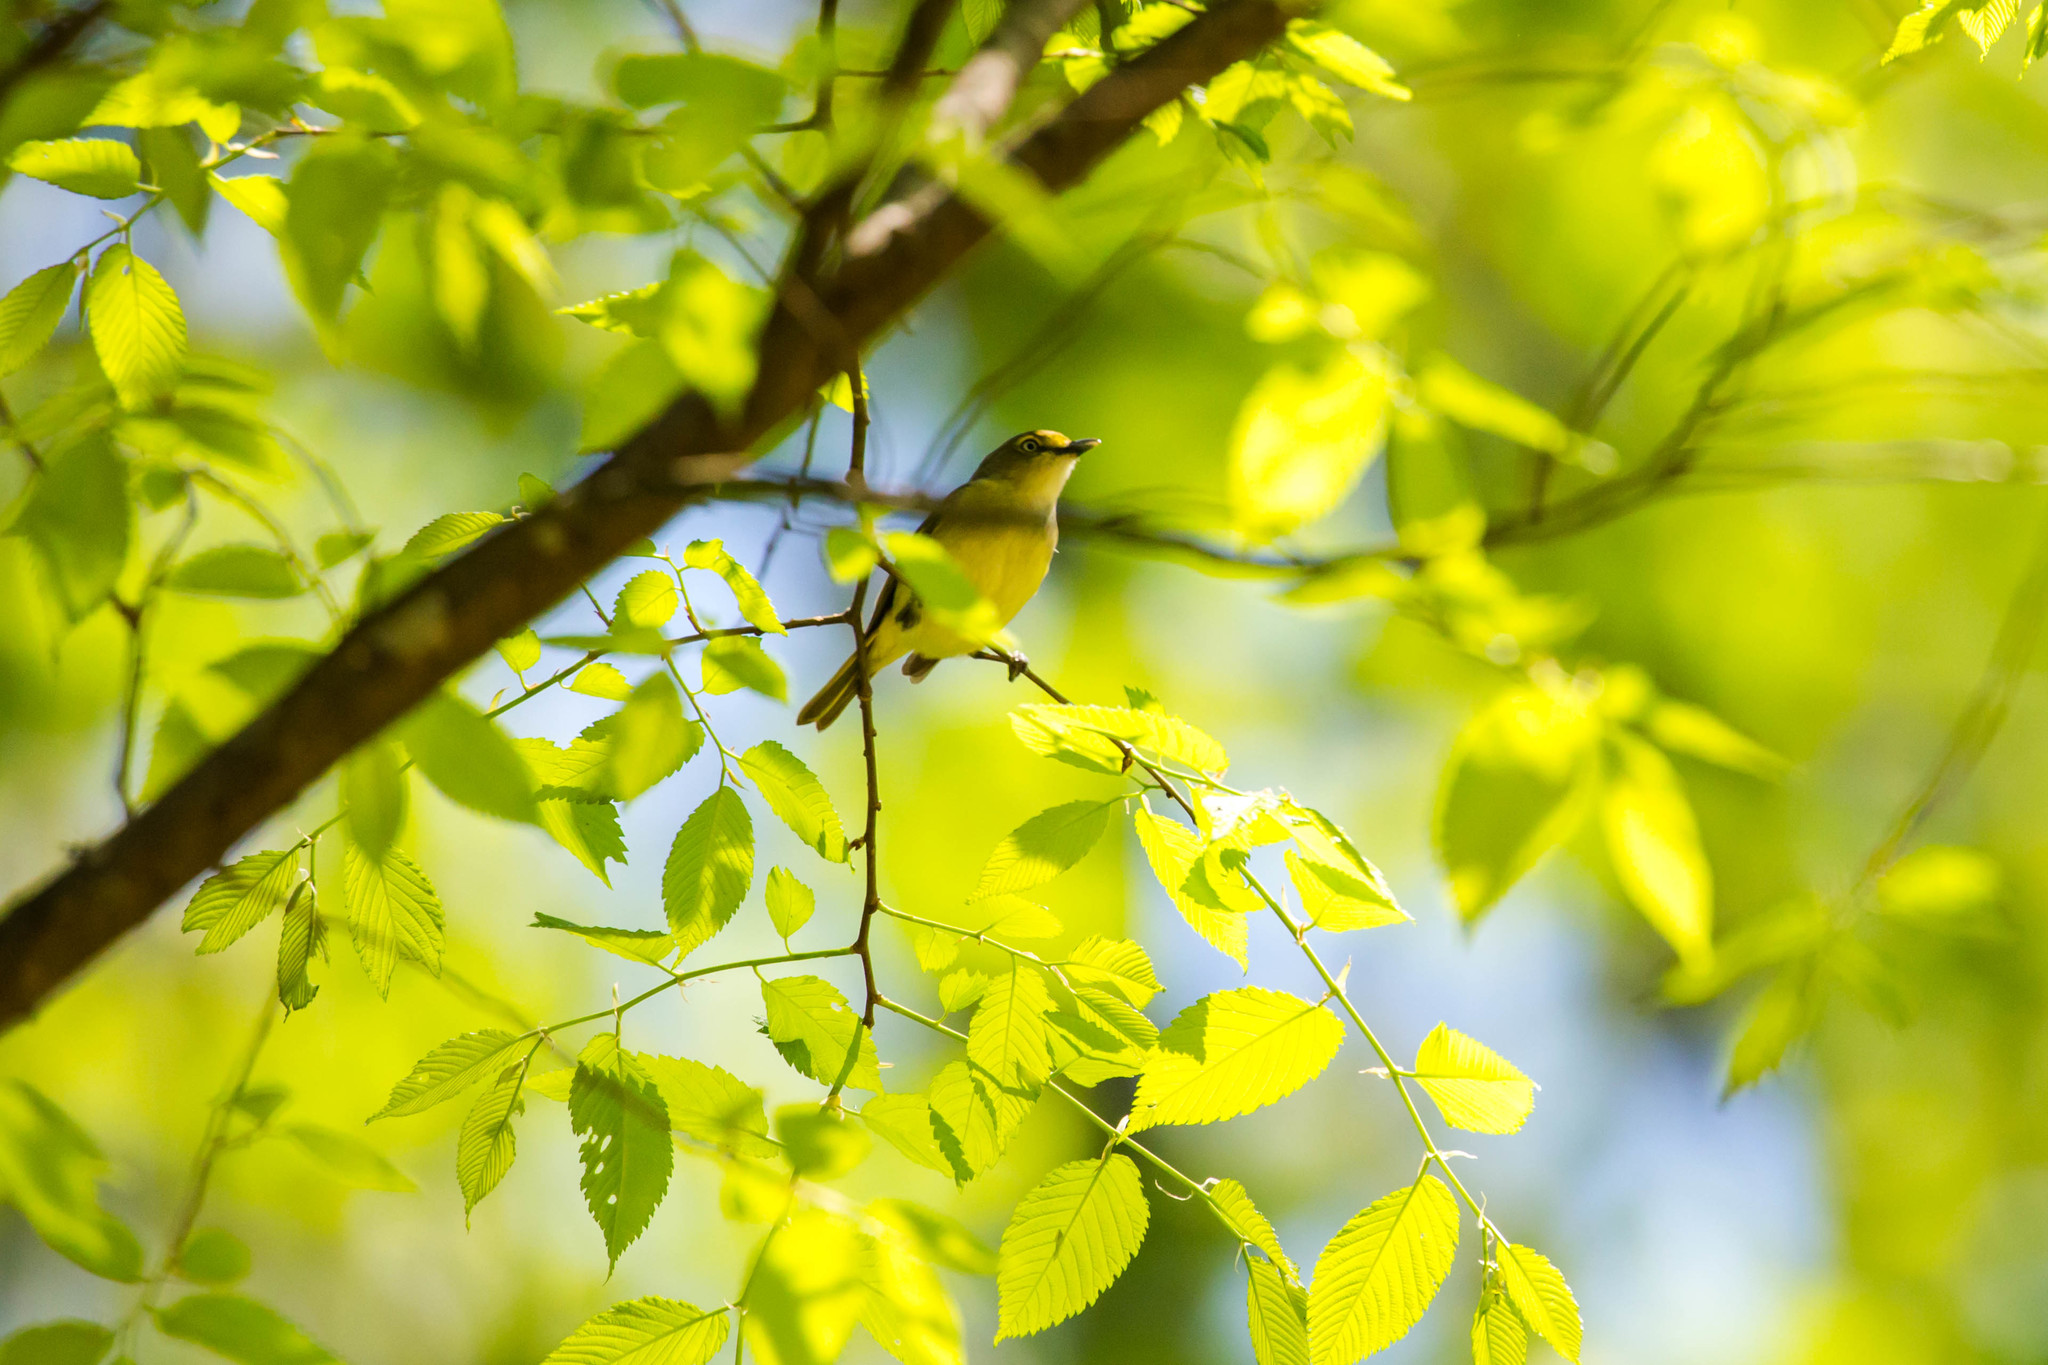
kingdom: Animalia
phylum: Chordata
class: Aves
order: Passeriformes
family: Vireonidae
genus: Vireo
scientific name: Vireo griseus
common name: White-eyed vireo
